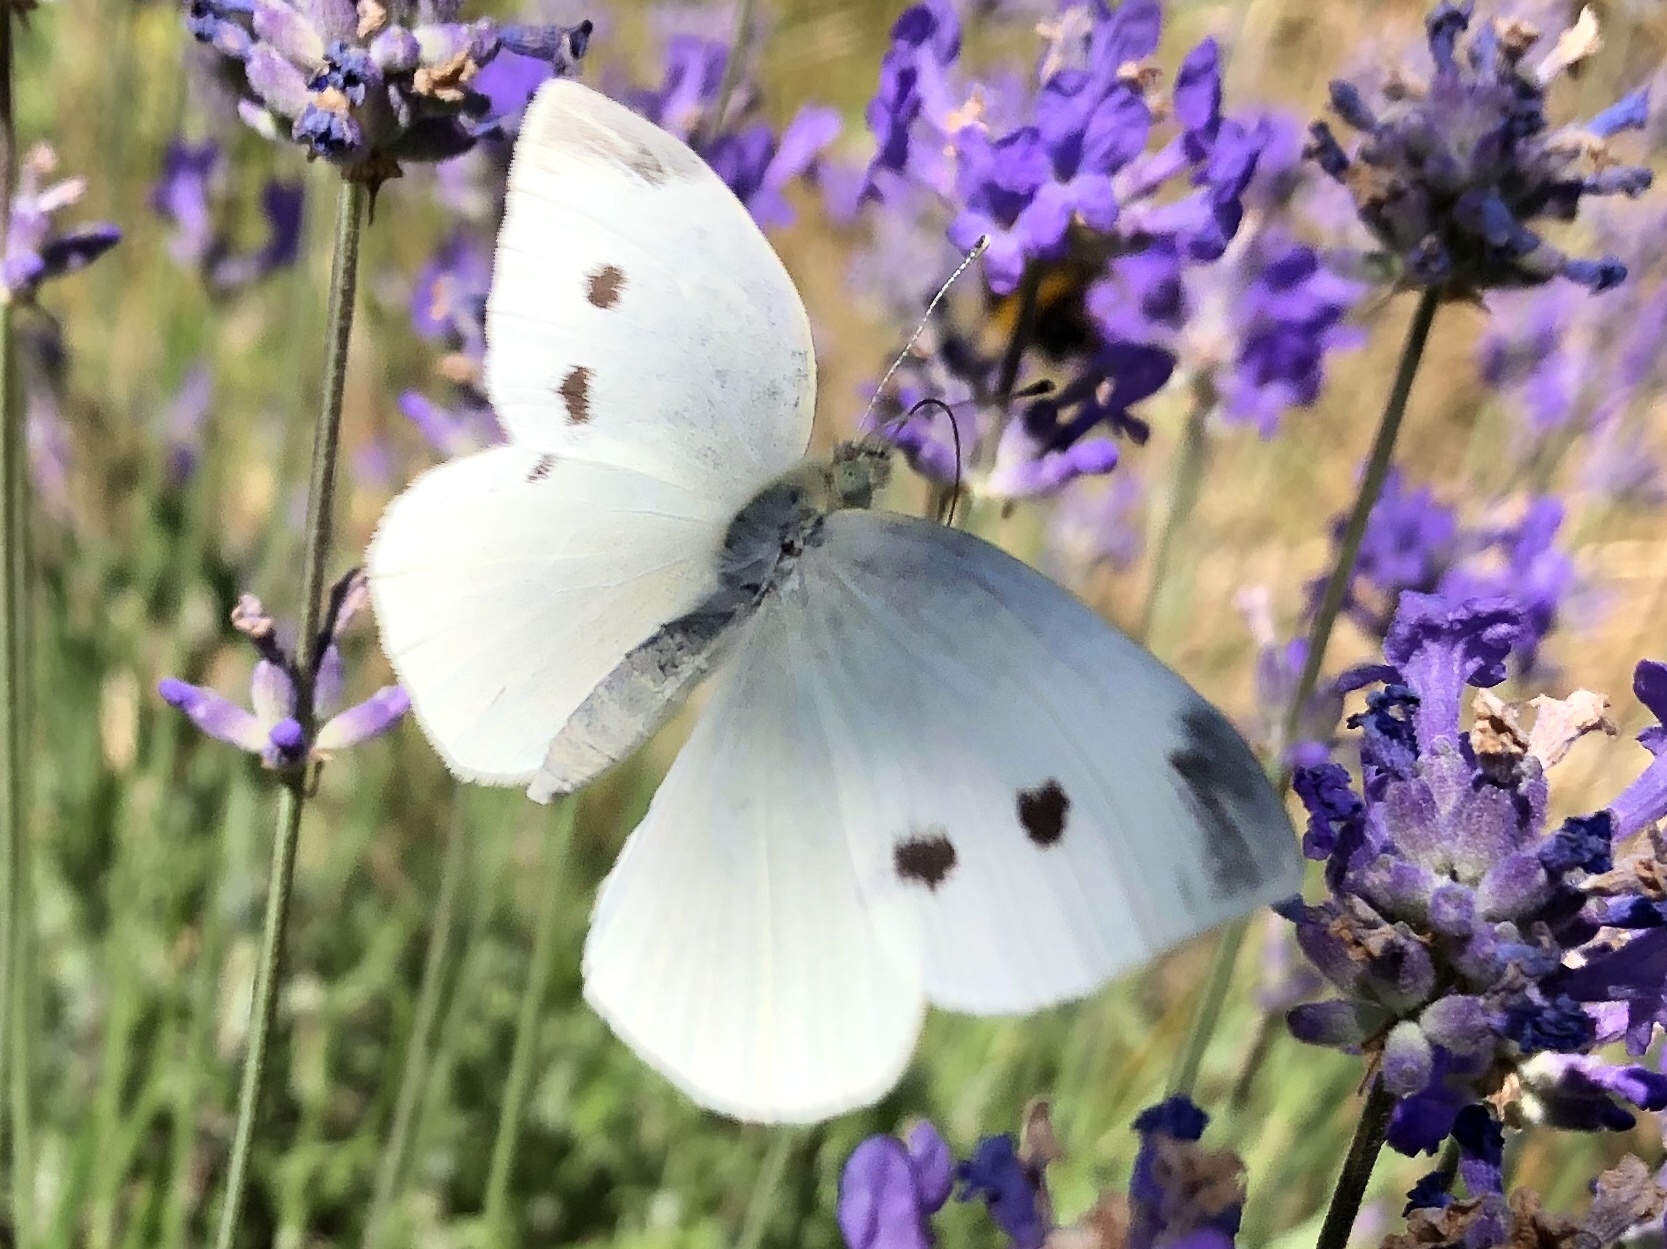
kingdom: Animalia
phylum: Arthropoda
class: Insecta
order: Lepidoptera
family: Pieridae
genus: Pieris
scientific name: Pieris rapae
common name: Small white
